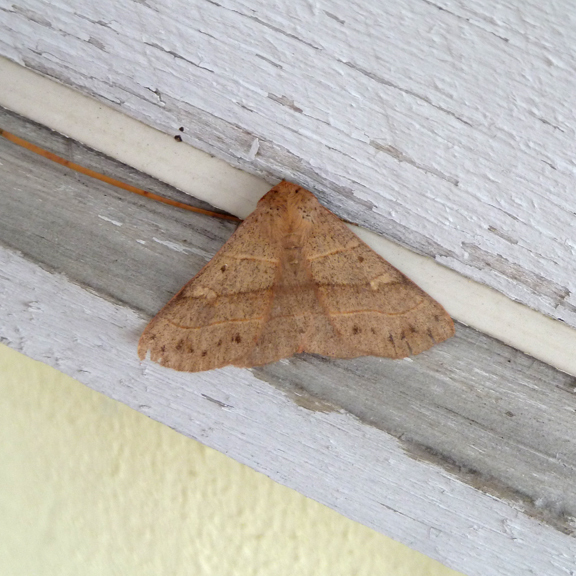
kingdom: Animalia
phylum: Arthropoda
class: Insecta
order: Lepidoptera
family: Erebidae
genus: Panopoda
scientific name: Panopoda rufimargo
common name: Red-lined panopoda moth
